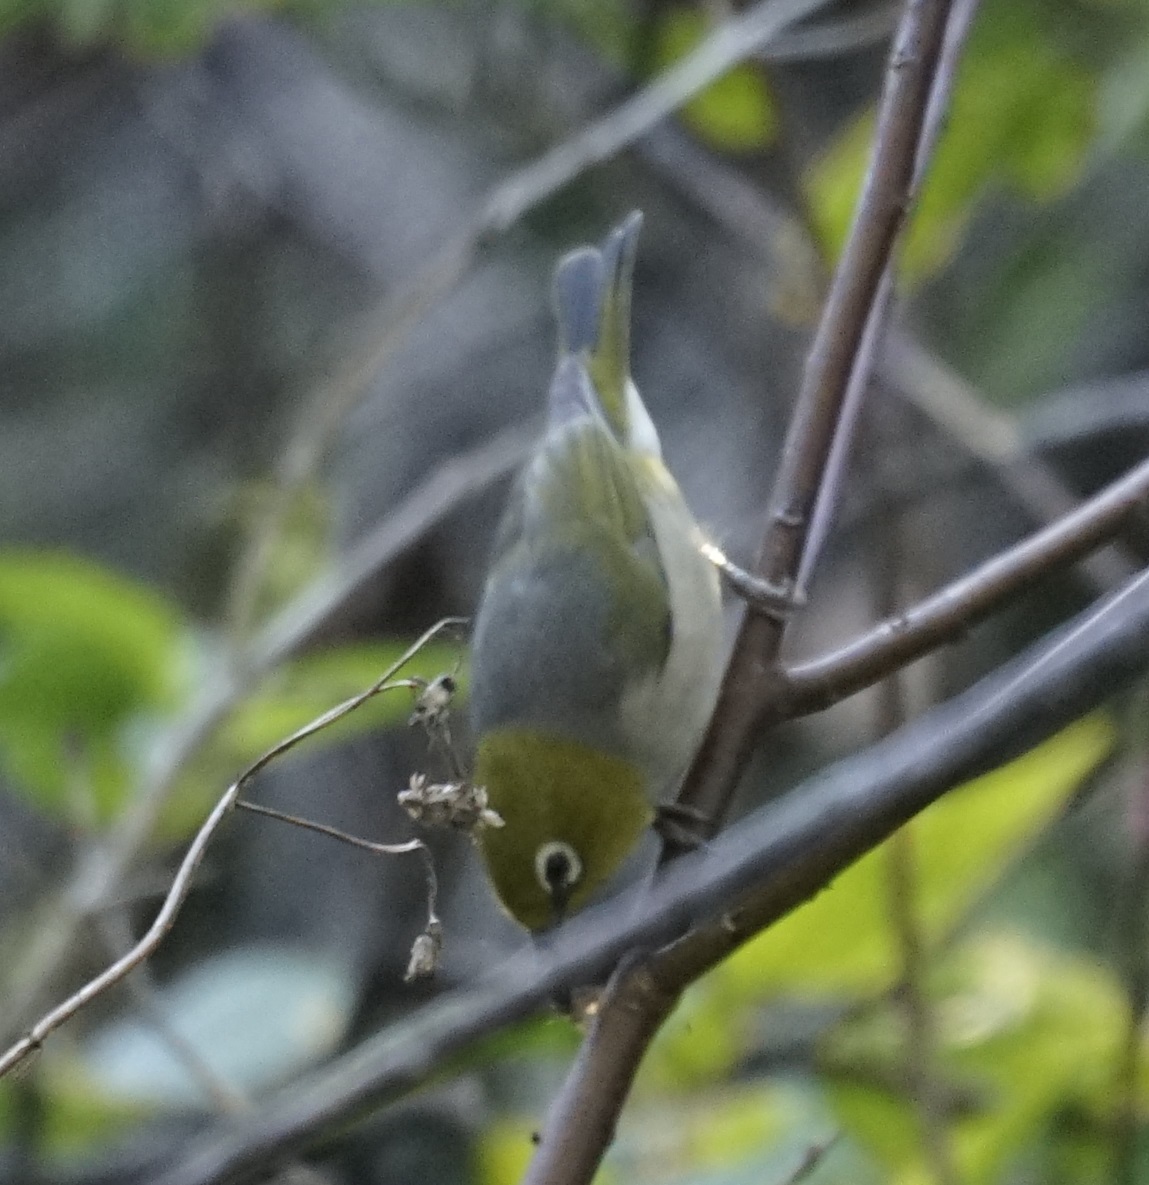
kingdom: Animalia
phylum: Chordata
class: Aves
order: Passeriformes
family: Zosteropidae
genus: Zosterops
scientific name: Zosterops lateralis
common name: Silvereye
